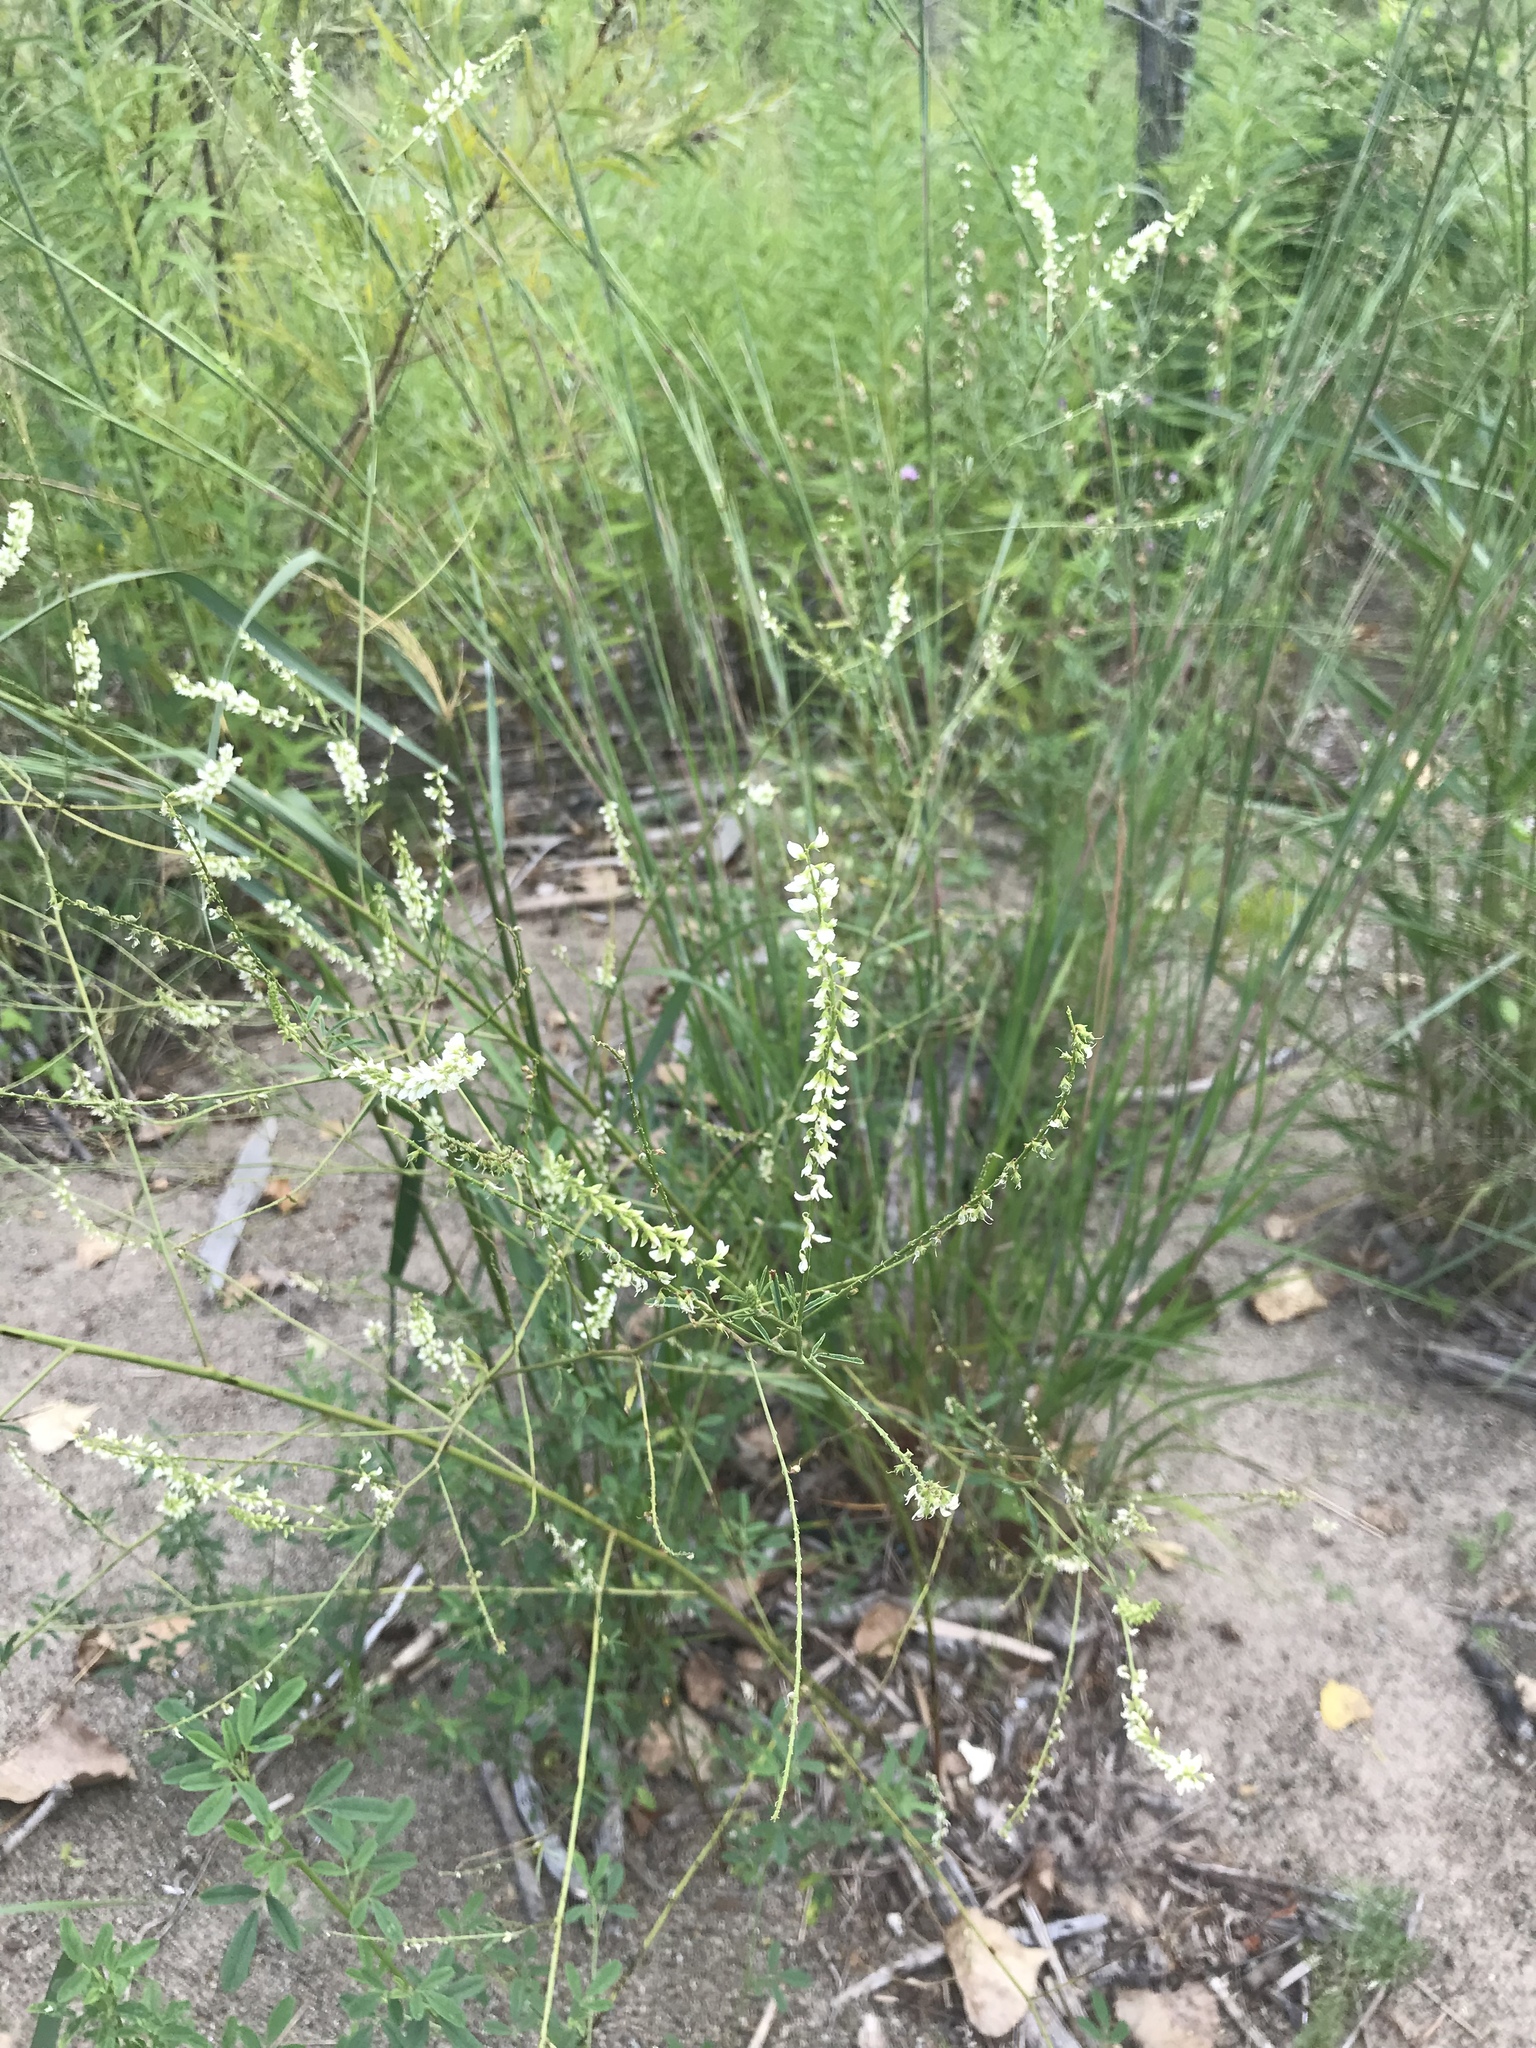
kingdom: Plantae
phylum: Tracheophyta
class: Magnoliopsida
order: Fabales
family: Fabaceae
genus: Melilotus
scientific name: Melilotus albus
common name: White melilot
